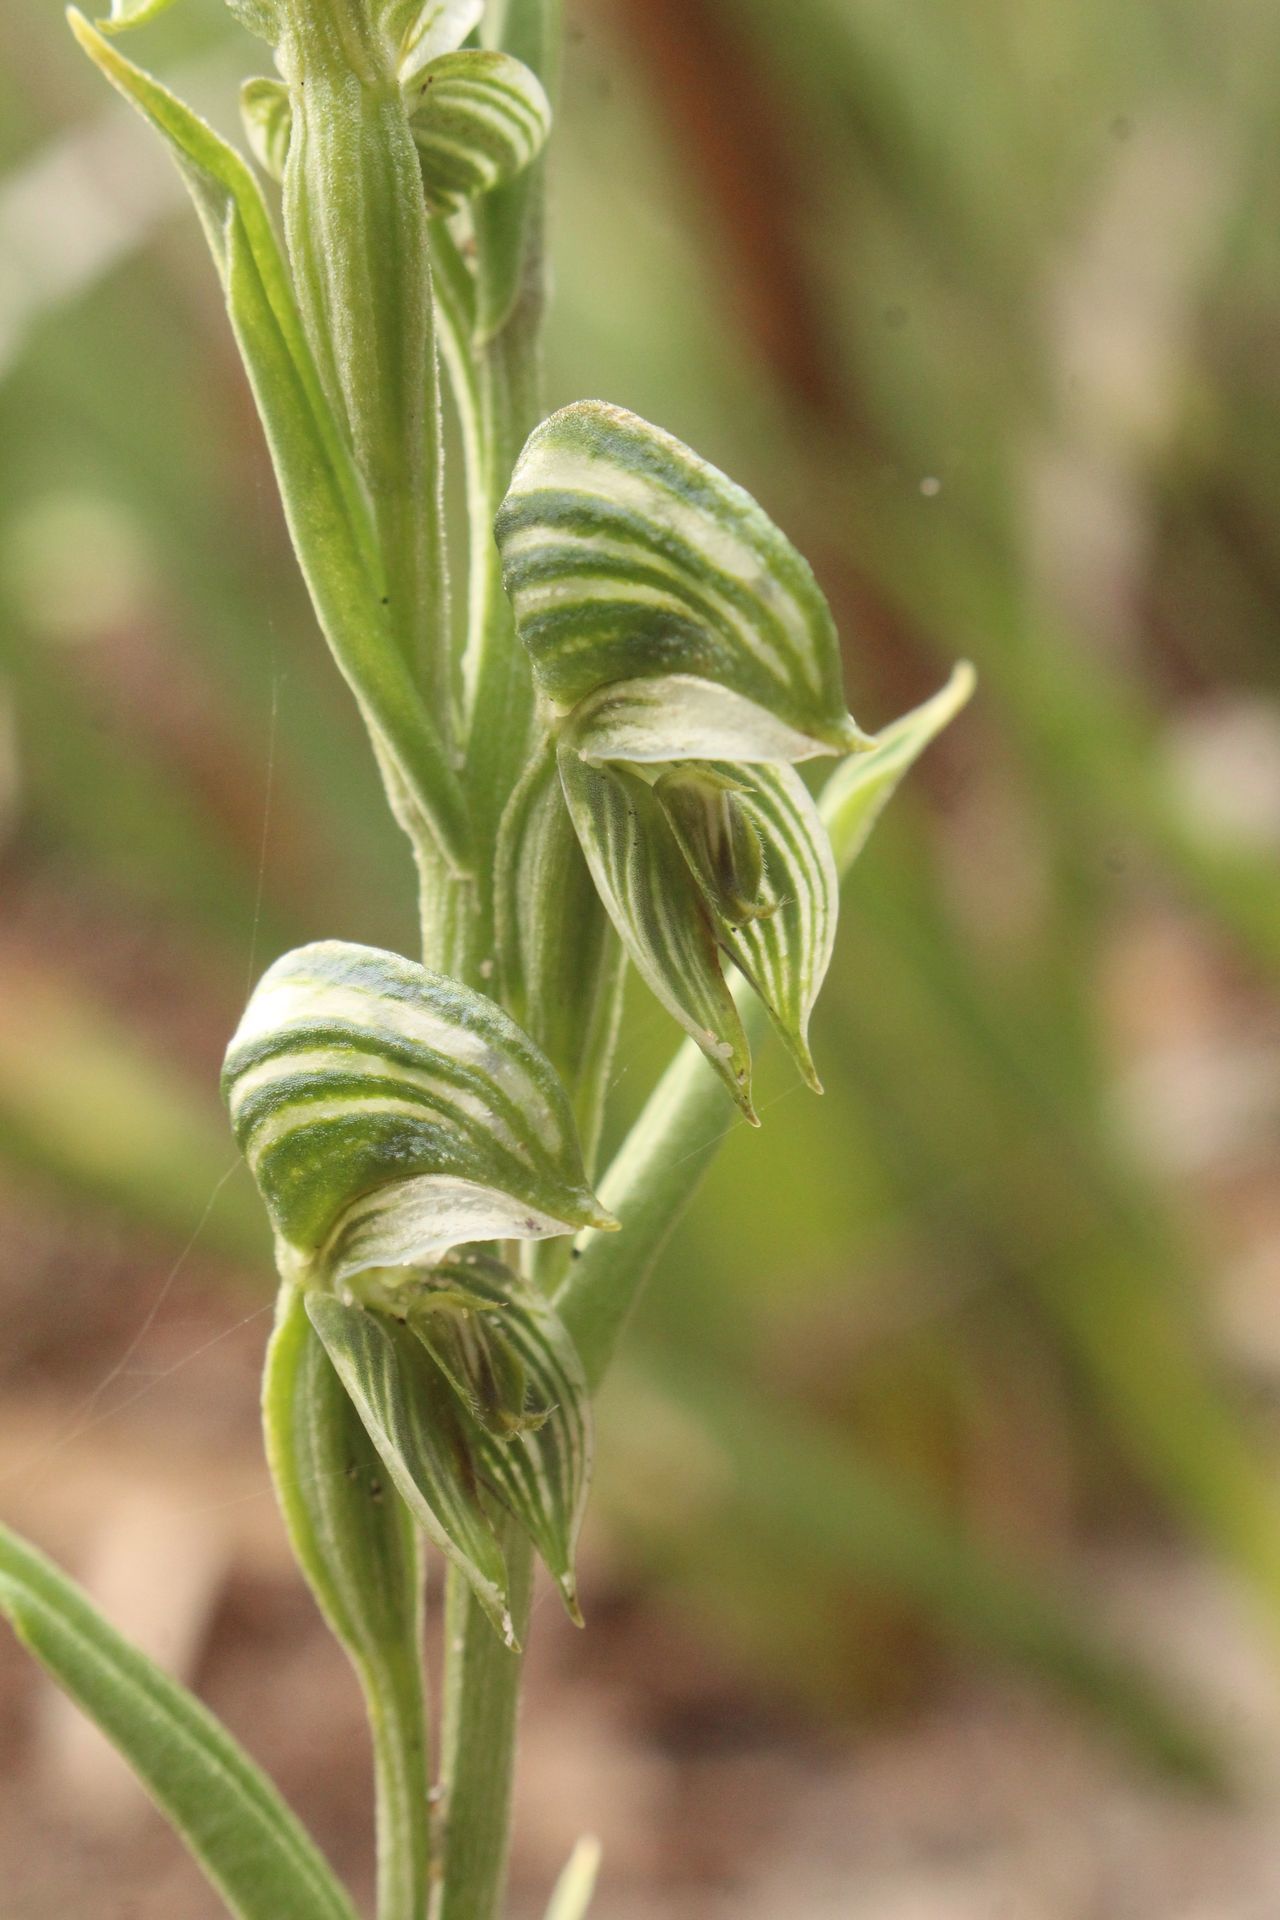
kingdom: Plantae
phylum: Tracheophyta
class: Liliopsida
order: Asparagales
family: Orchidaceae
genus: Pterostylis
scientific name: Pterostylis vittata
